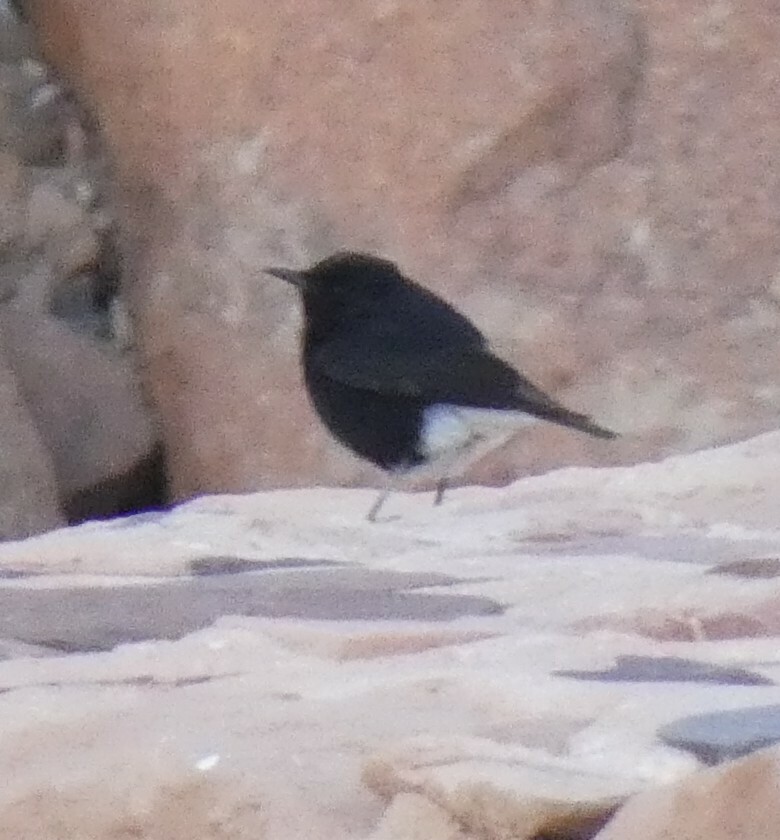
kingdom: Animalia
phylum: Chordata
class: Aves
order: Passeriformes
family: Muscicapidae
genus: Oenanthe
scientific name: Oenanthe leucopyga
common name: White-crowned wheatear
